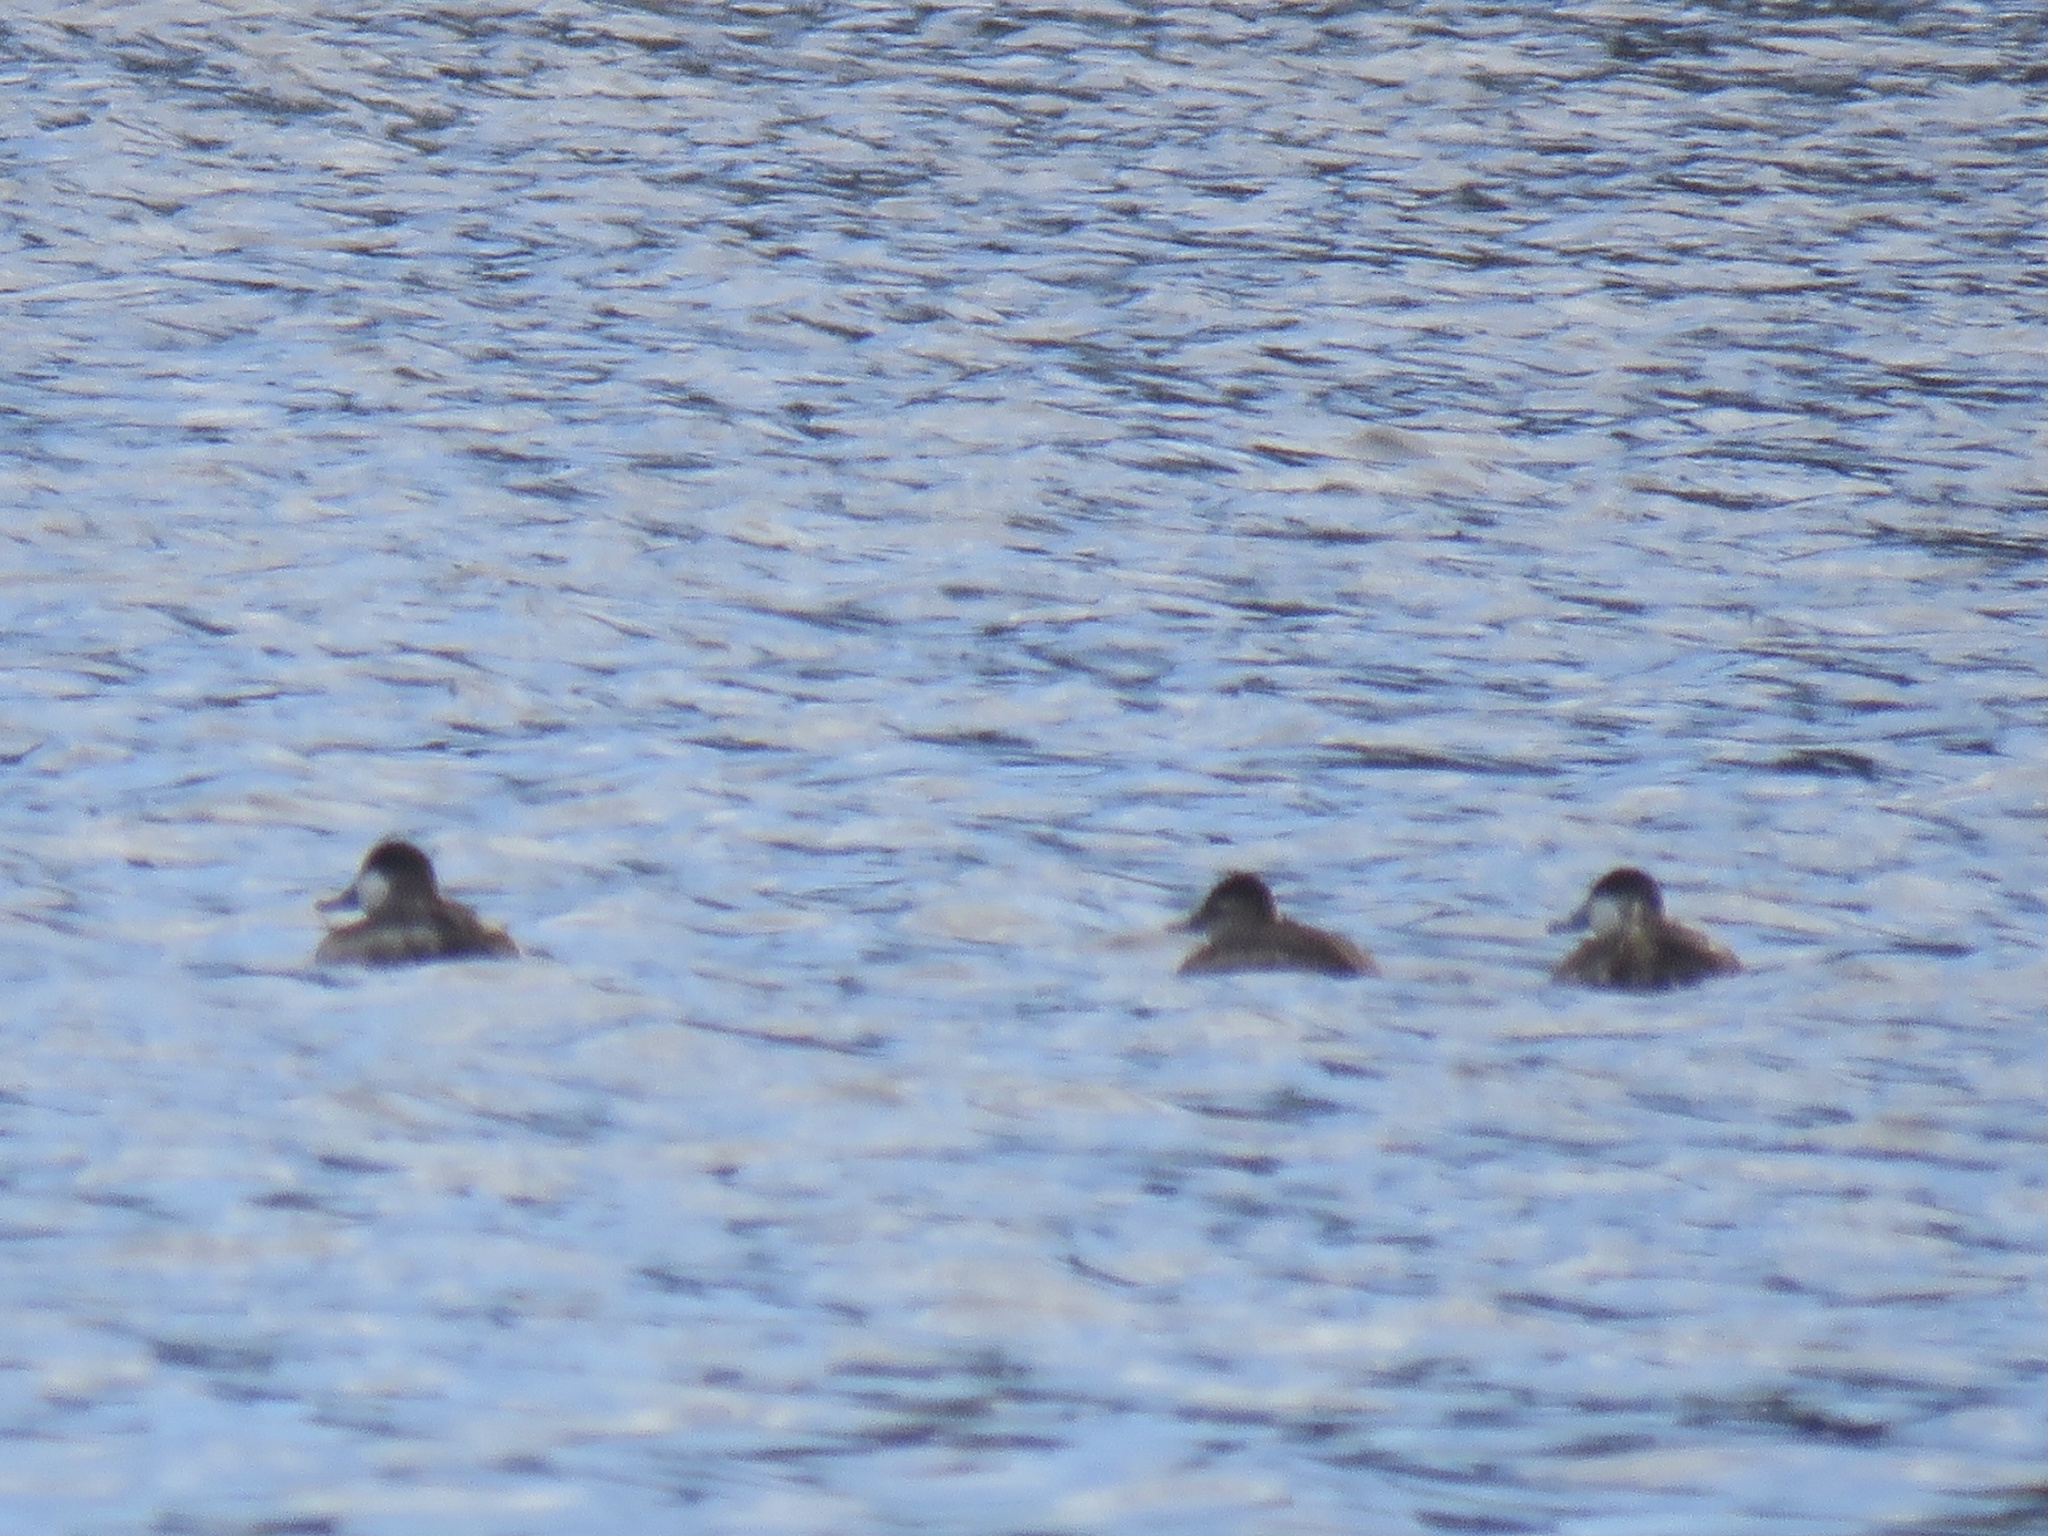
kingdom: Animalia
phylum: Chordata
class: Aves
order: Anseriformes
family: Anatidae
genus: Oxyura
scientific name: Oxyura jamaicensis
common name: Ruddy duck
